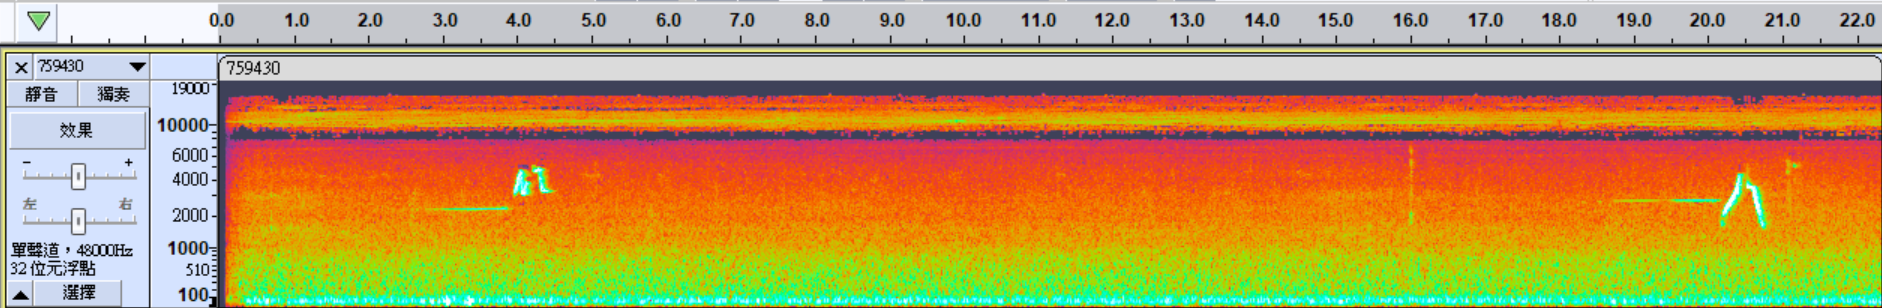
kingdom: Animalia
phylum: Chordata
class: Aves
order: Passeriformes
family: Cettiidae
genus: Horornis
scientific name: Horornis fortipes
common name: Brown-flanked bush warbler
